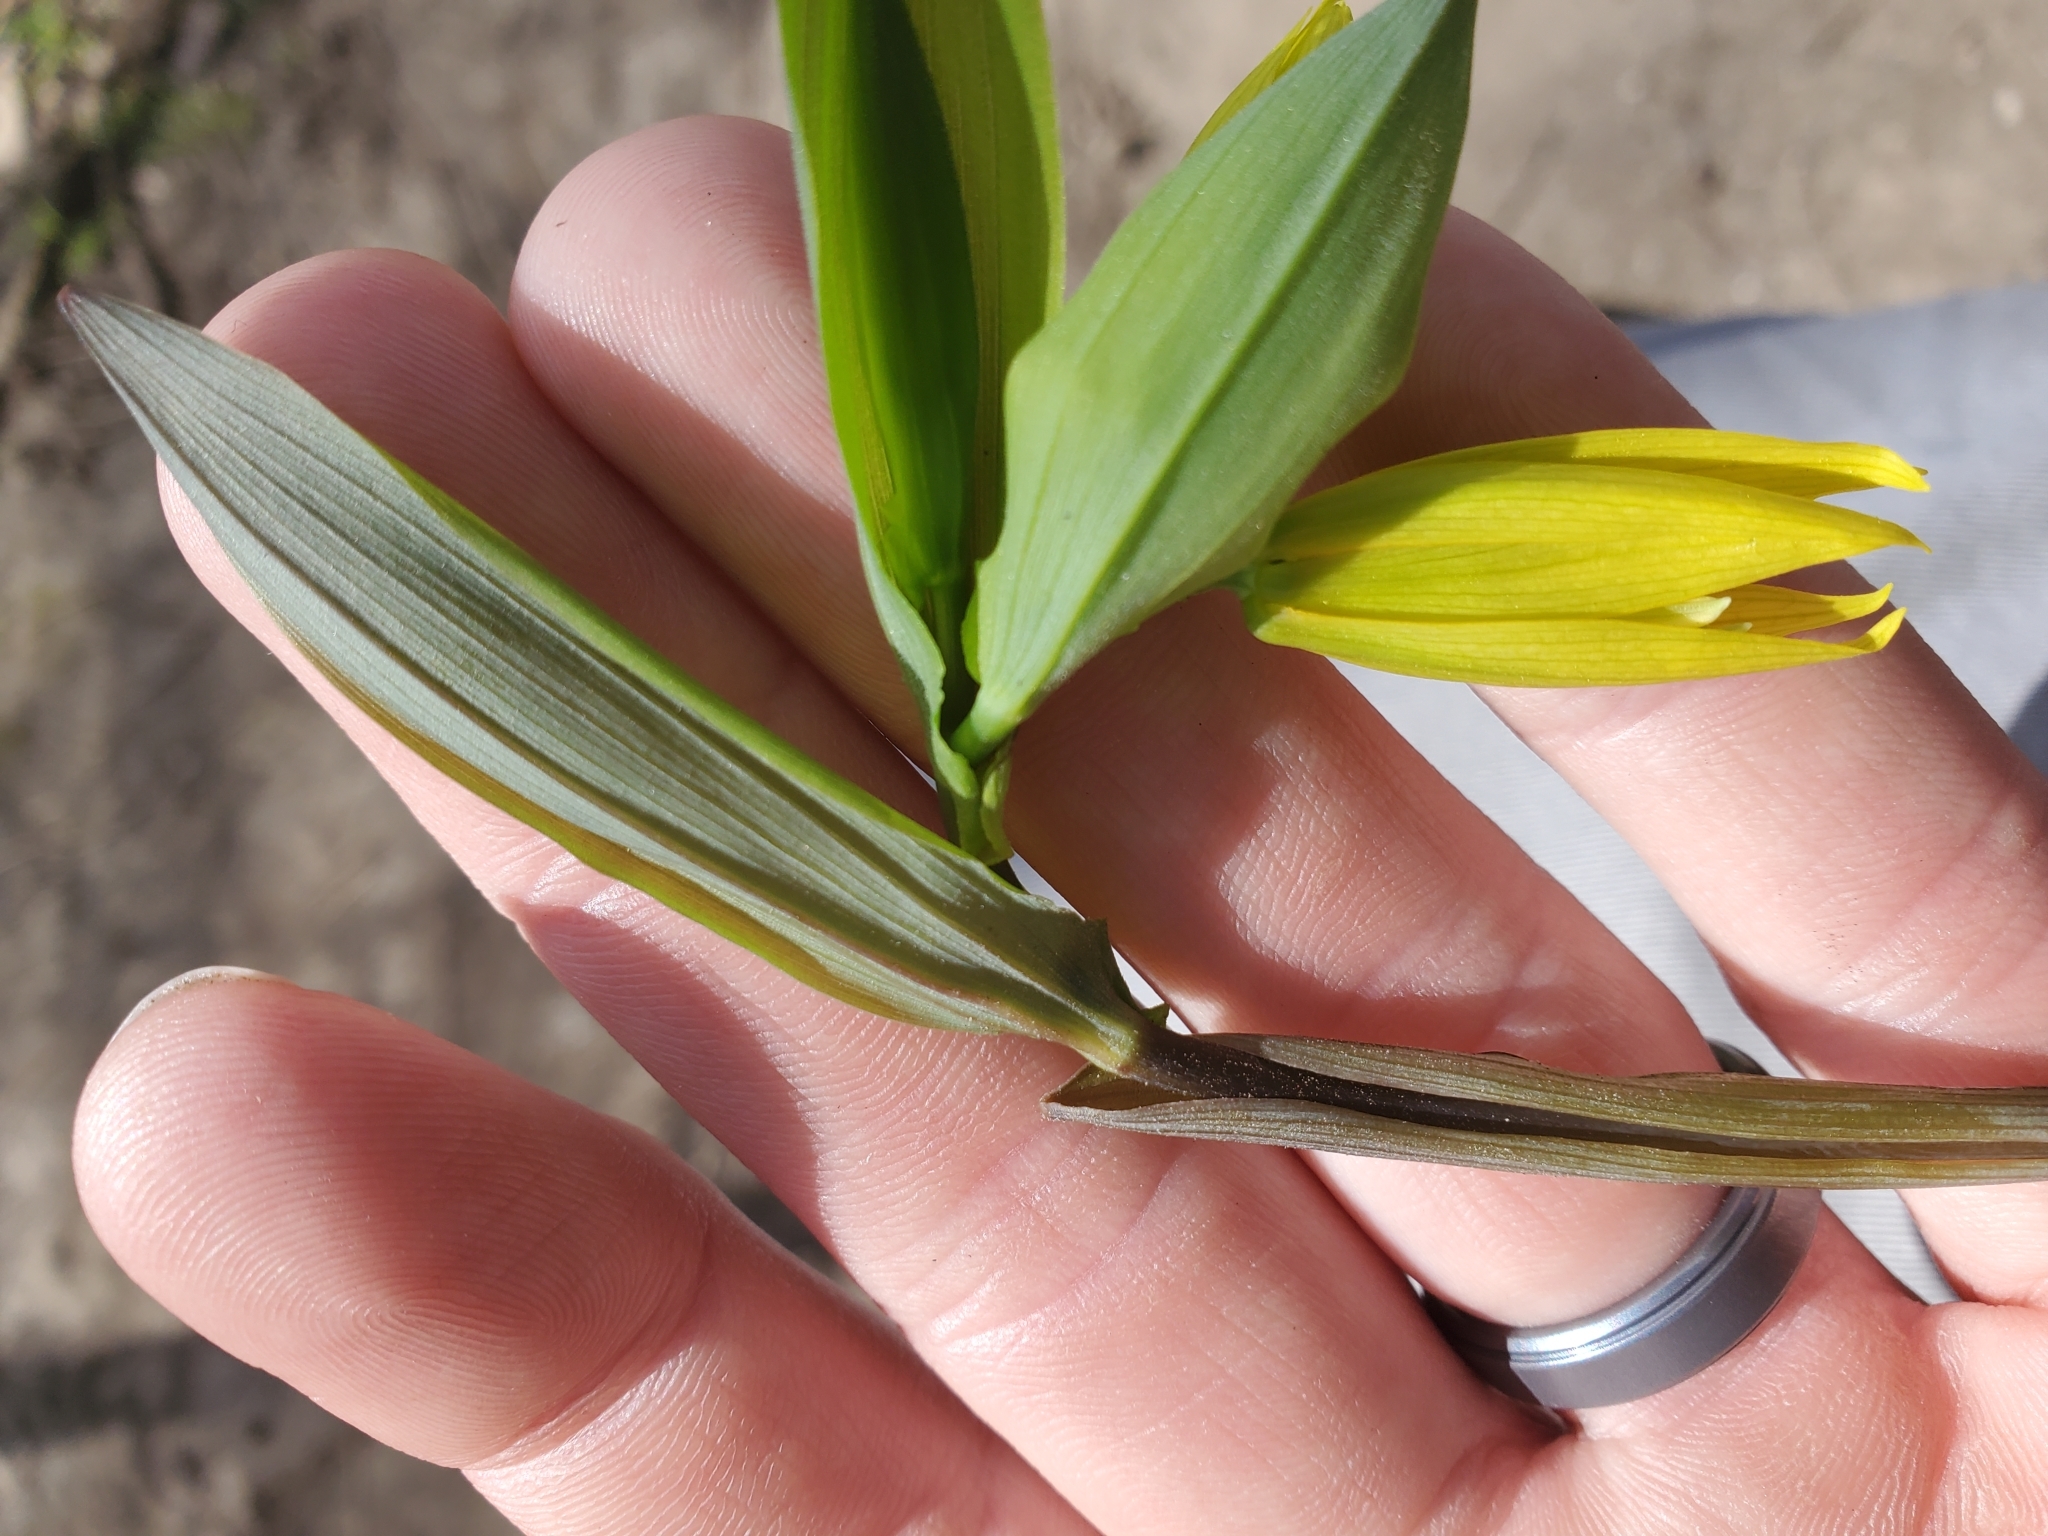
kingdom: Plantae
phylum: Tracheophyta
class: Liliopsida
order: Liliales
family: Colchicaceae
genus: Uvularia
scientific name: Uvularia grandiflora
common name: Bellwort
